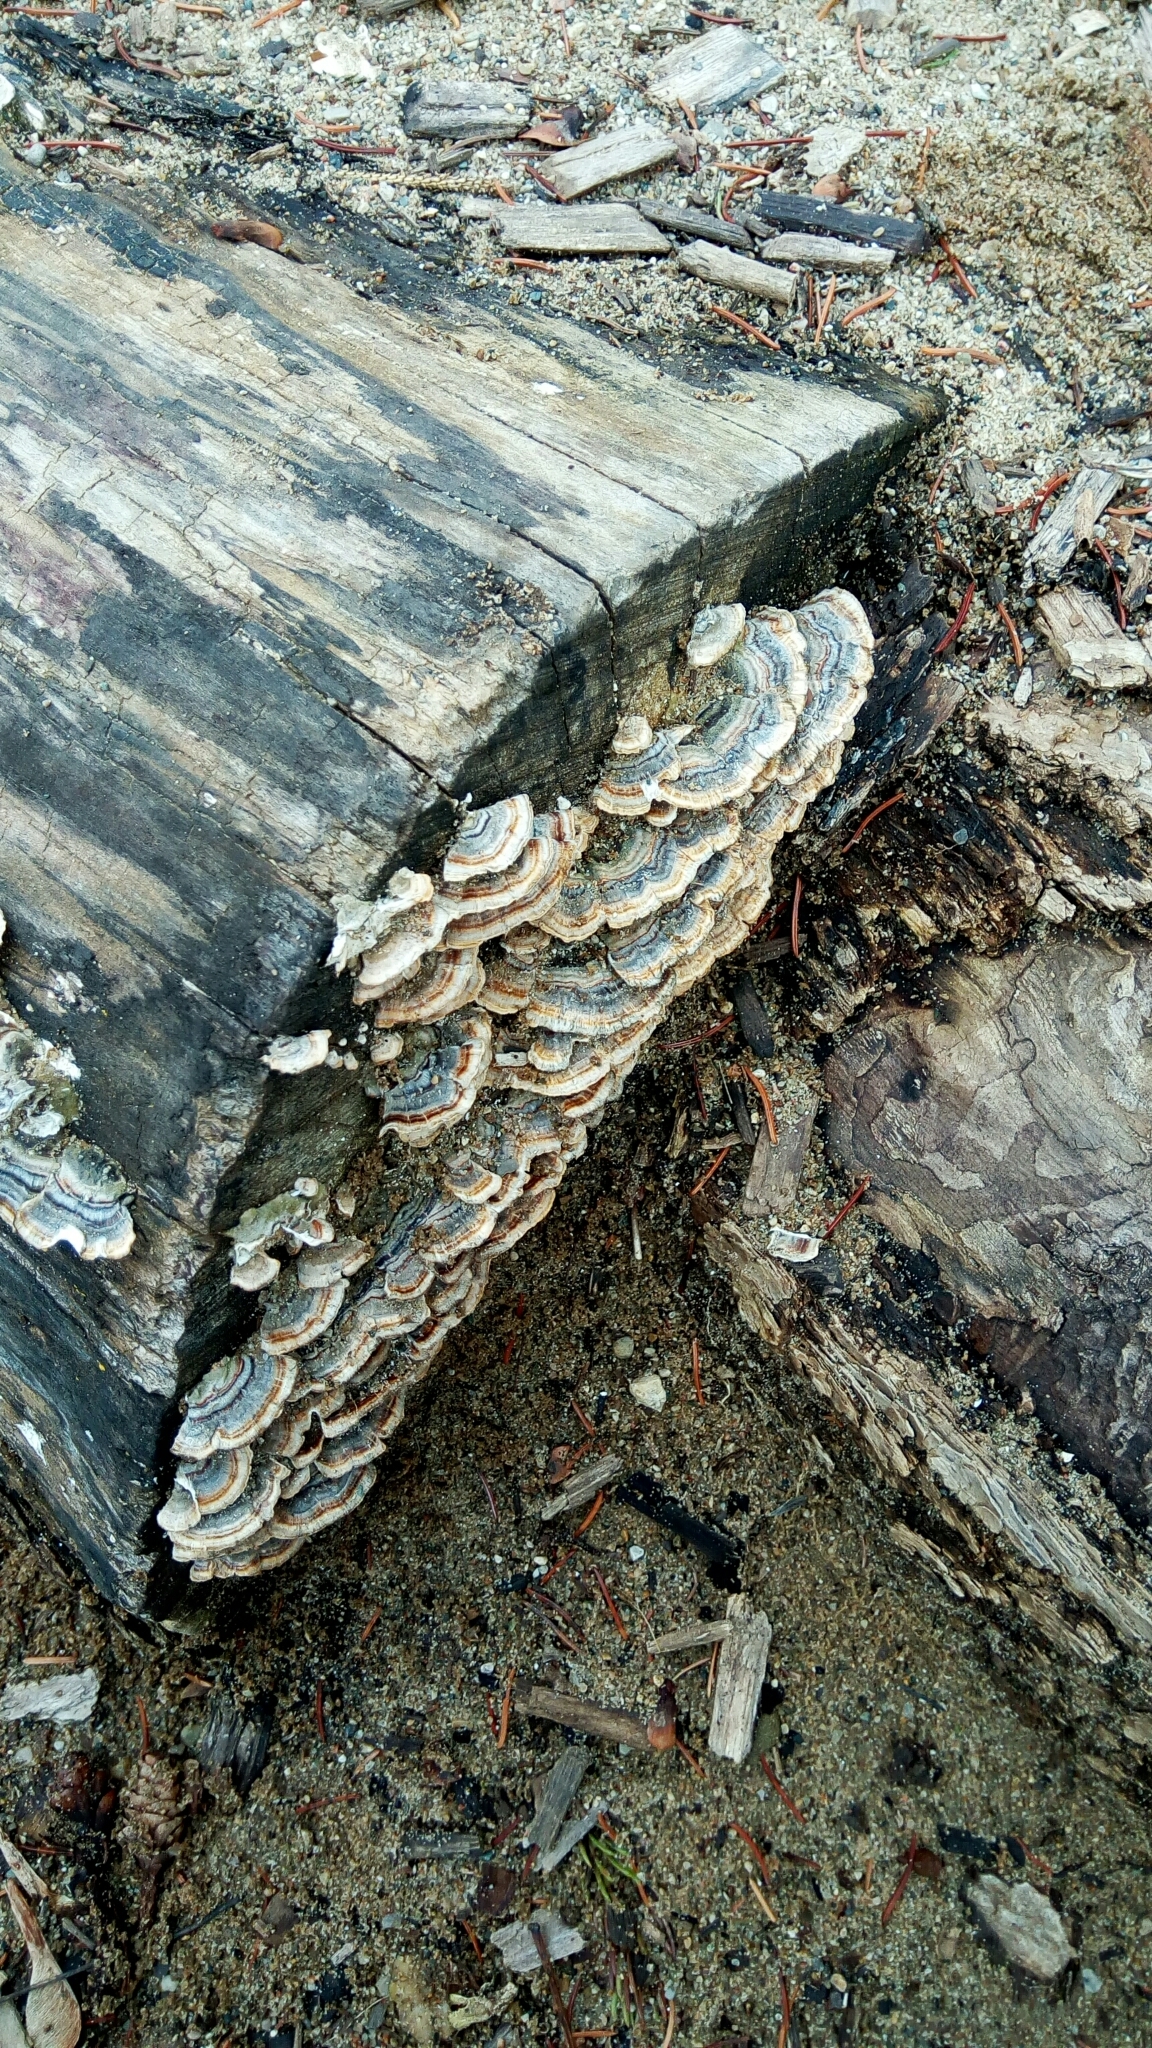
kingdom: Fungi
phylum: Basidiomycota
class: Agaricomycetes
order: Polyporales
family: Polyporaceae
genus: Trametes
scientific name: Trametes versicolor
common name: Turkeytail
